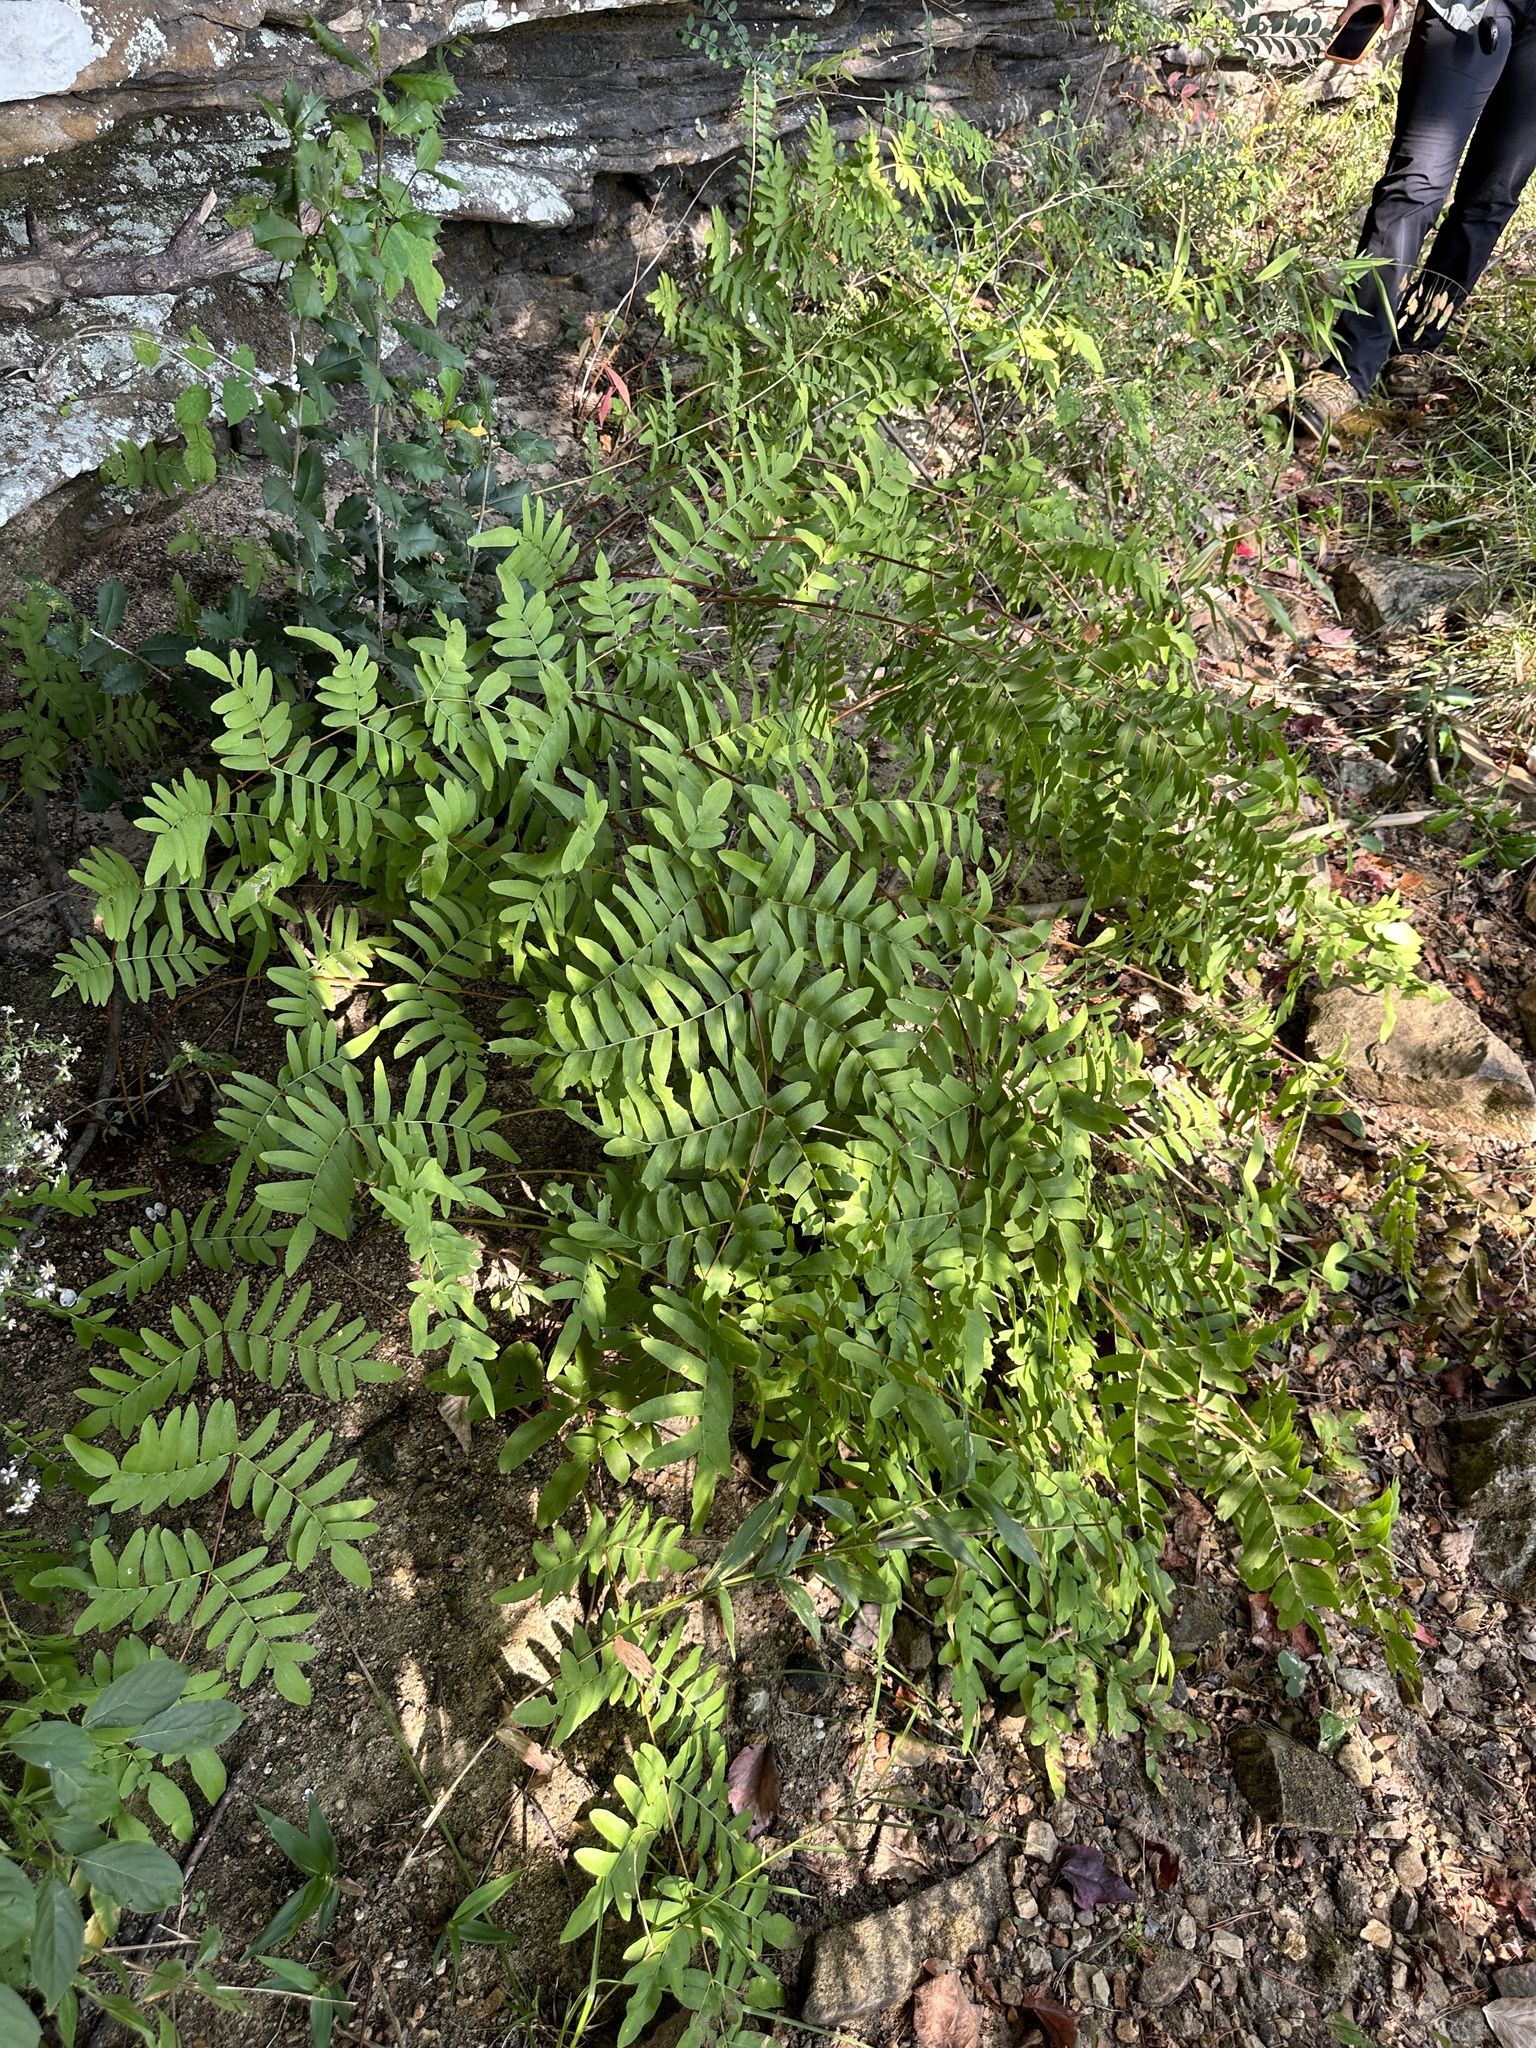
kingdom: Plantae
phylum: Tracheophyta
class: Polypodiopsida
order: Osmundales
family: Osmundaceae
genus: Osmunda
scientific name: Osmunda spectabilis
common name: American royal fern
